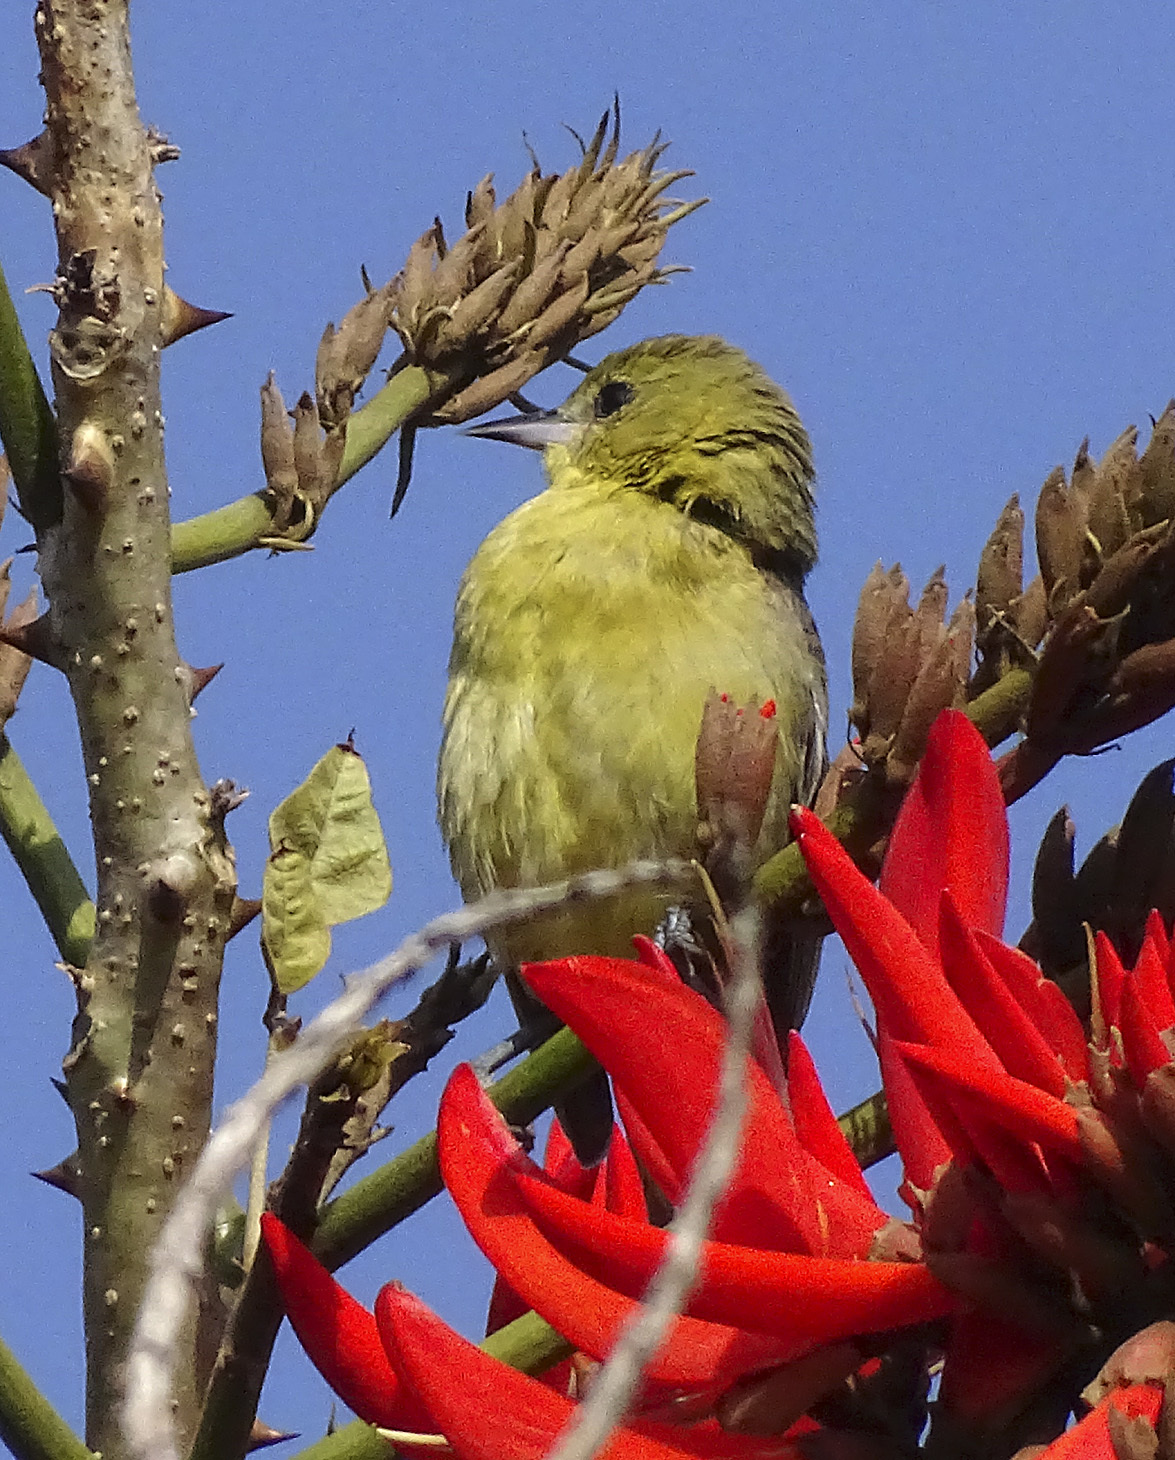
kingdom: Animalia
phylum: Chordata
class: Aves
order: Passeriformes
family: Icteridae
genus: Icterus
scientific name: Icterus spurius
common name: Orchard oriole
